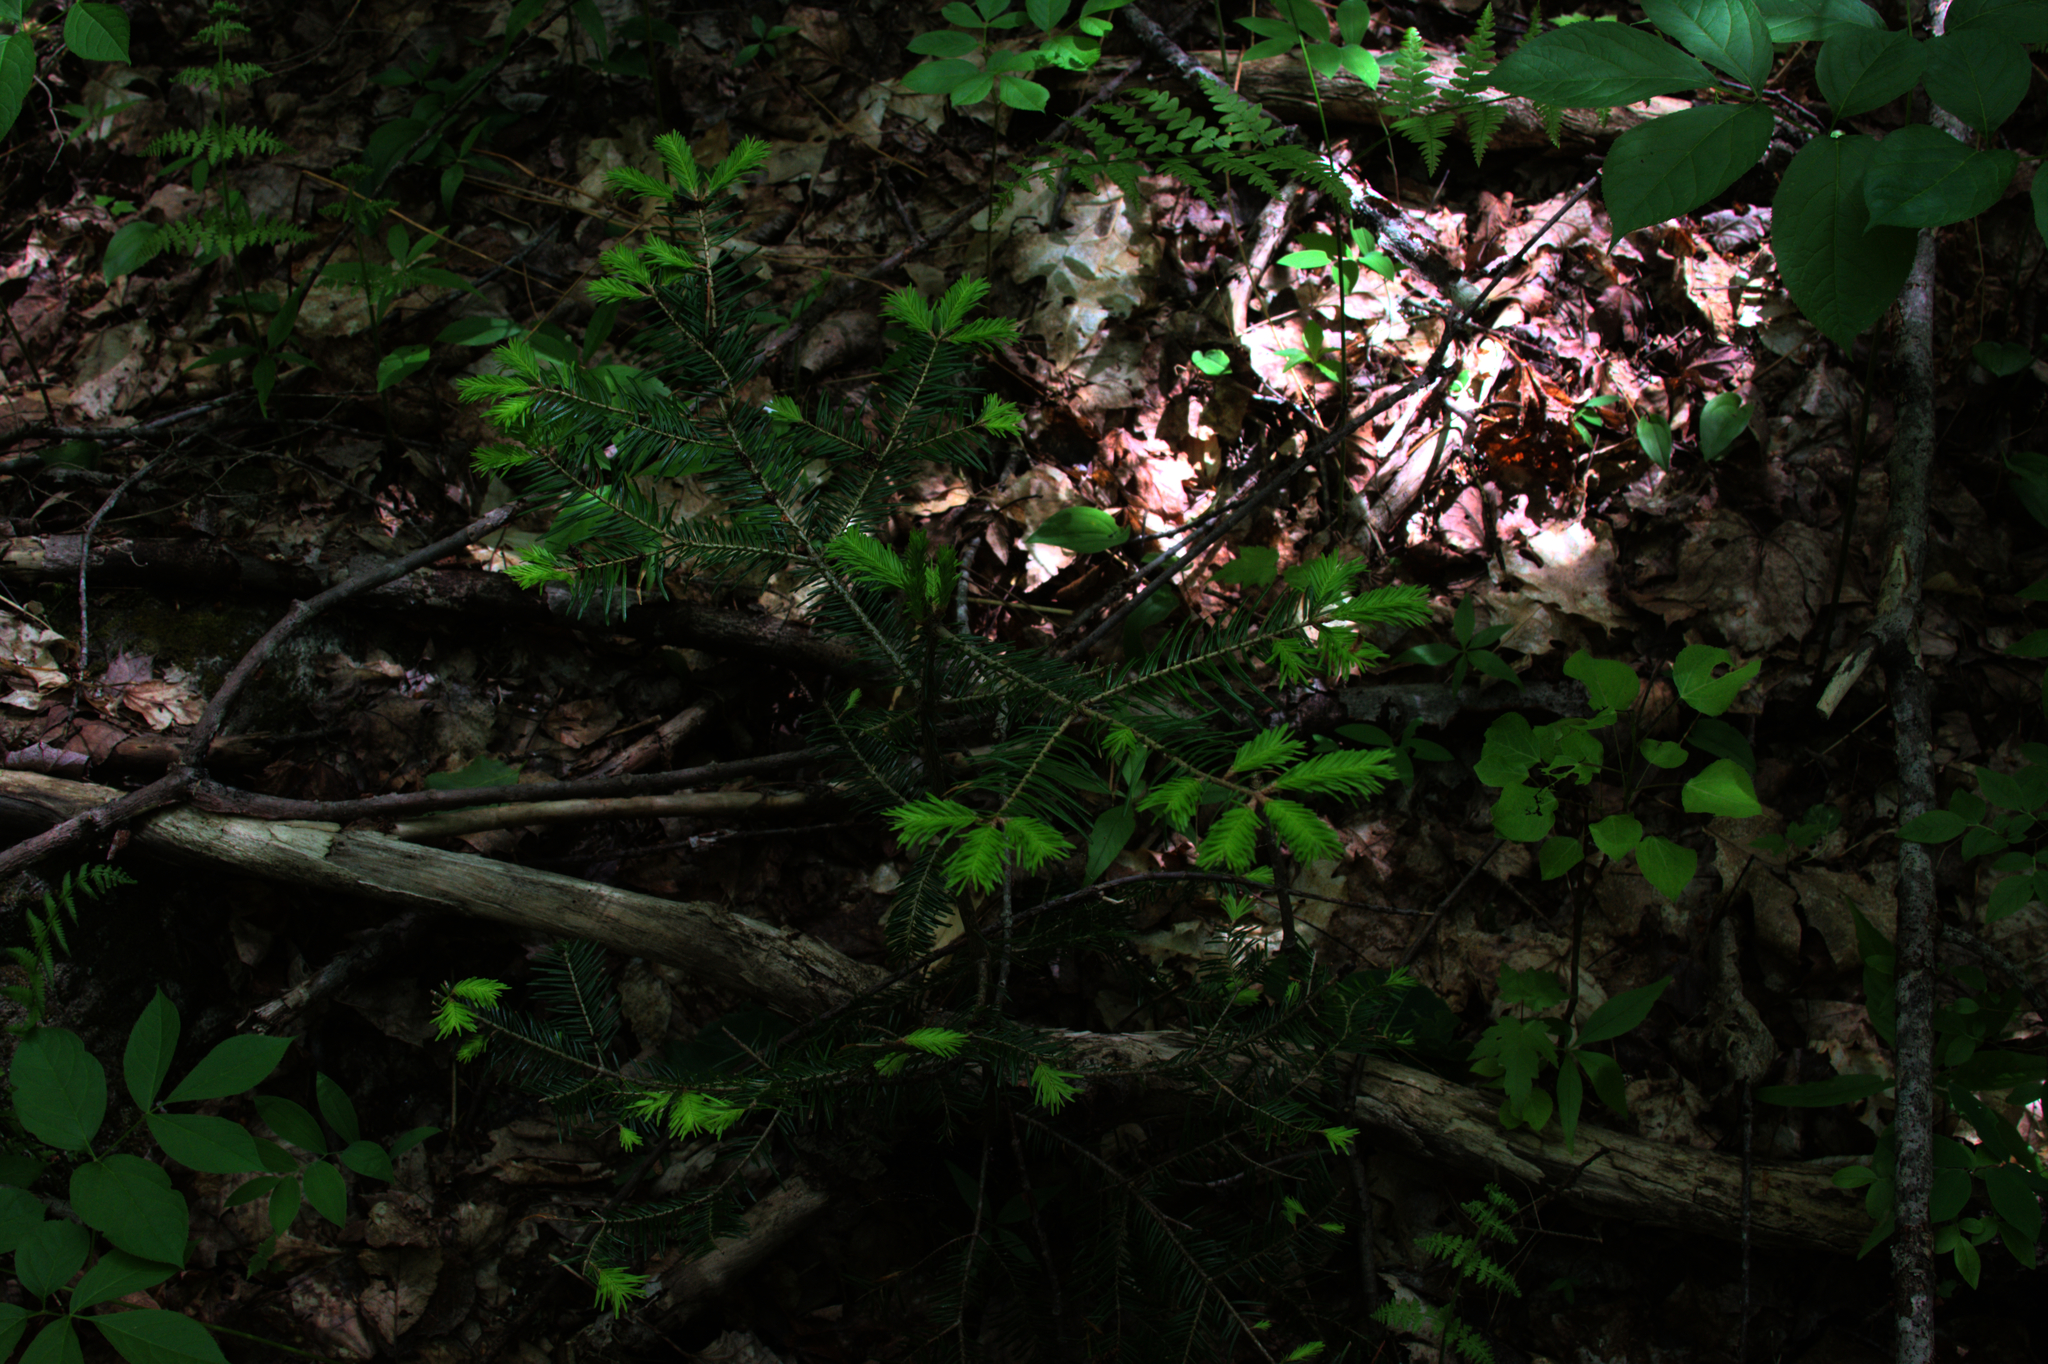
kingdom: Plantae
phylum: Tracheophyta
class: Pinopsida
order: Pinales
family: Pinaceae
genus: Abies
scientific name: Abies balsamea
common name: Balsam fir
